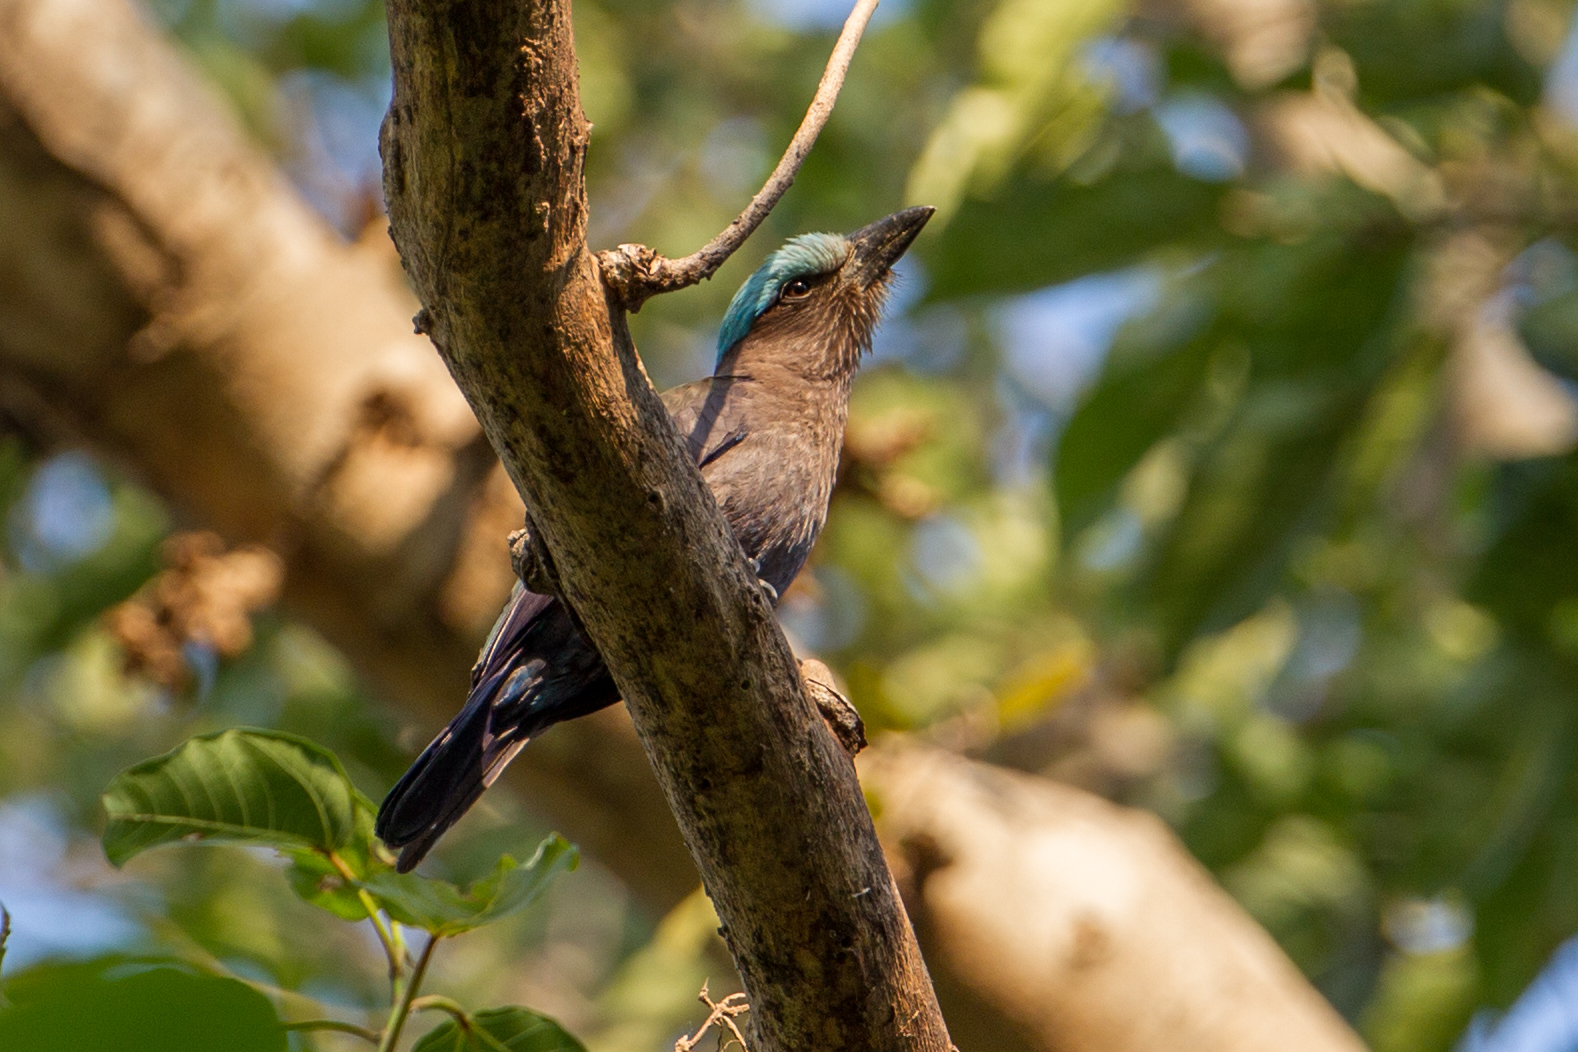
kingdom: Animalia
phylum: Chordata
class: Aves
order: Coraciiformes
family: Coraciidae
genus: Coracias
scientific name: Coracias temminckii
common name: Purple-winged roller
